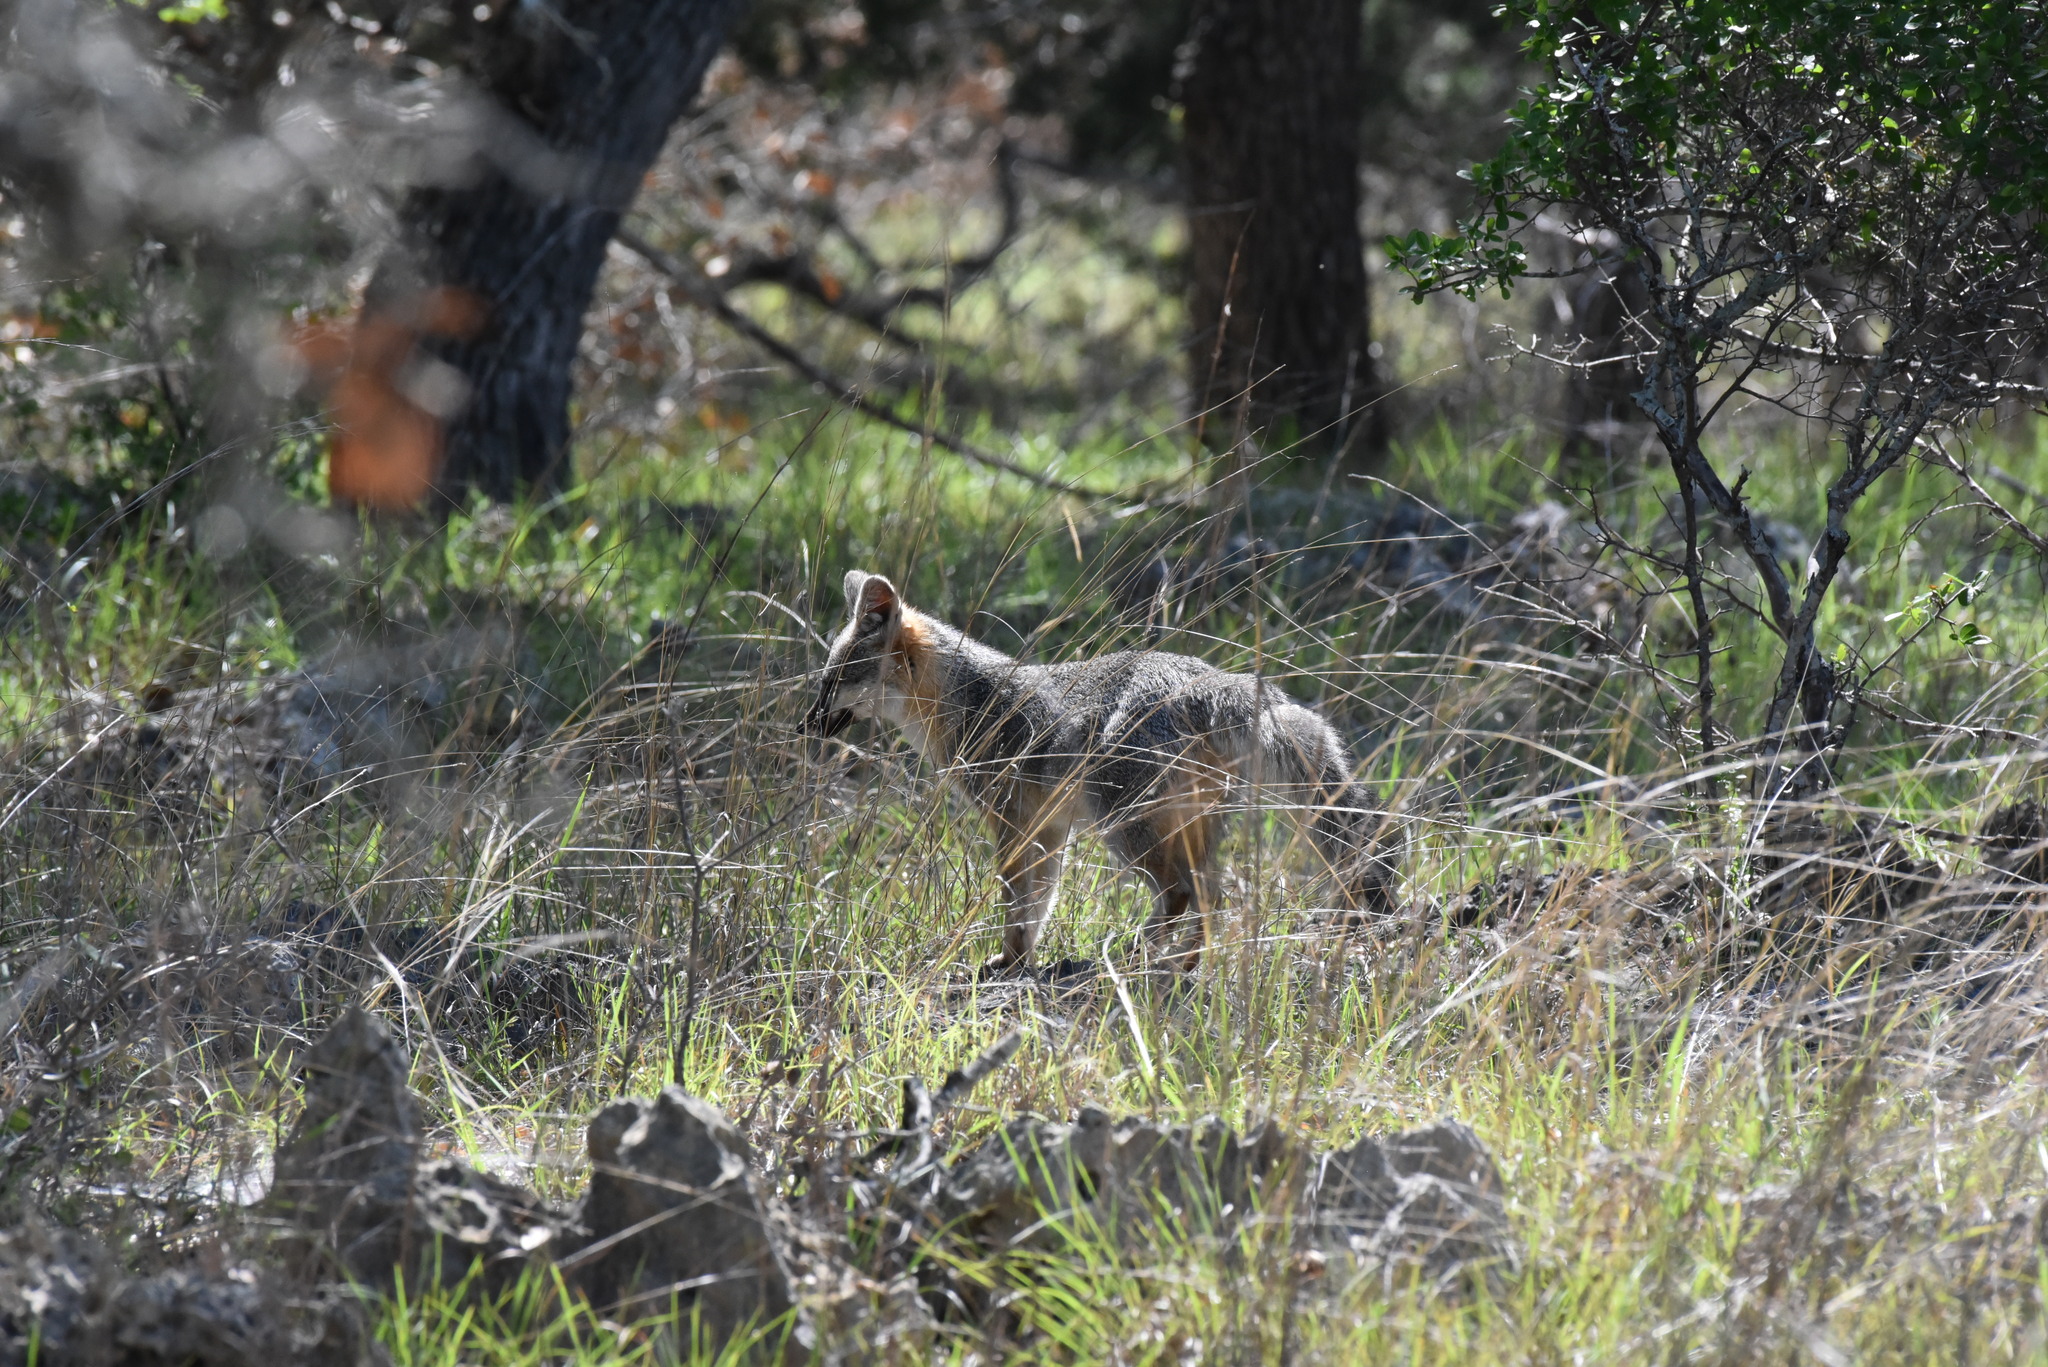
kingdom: Animalia
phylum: Chordata
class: Mammalia
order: Carnivora
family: Canidae
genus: Urocyon
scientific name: Urocyon cinereoargenteus
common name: Gray fox
